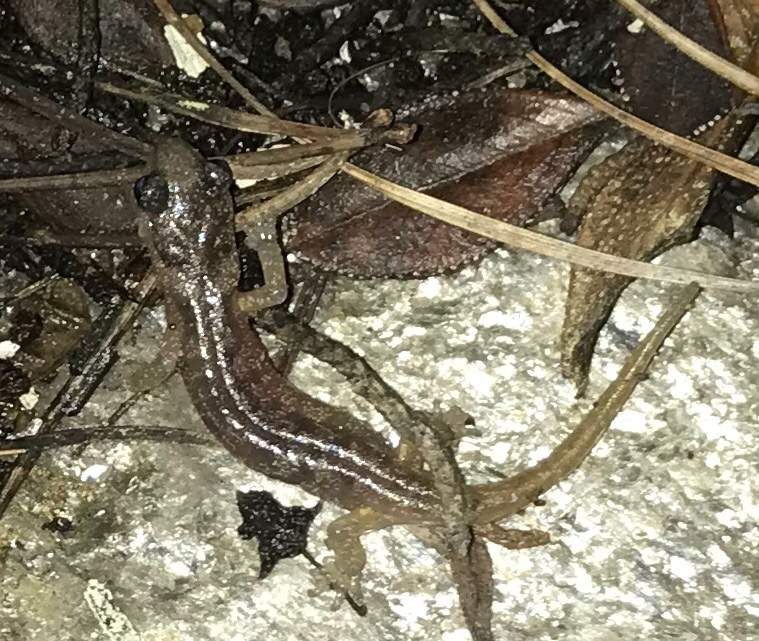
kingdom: Animalia
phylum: Chordata
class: Amphibia
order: Caudata
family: Plethodontidae
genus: Aneides
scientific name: Aneides lugubris
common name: Arboreal salamander
